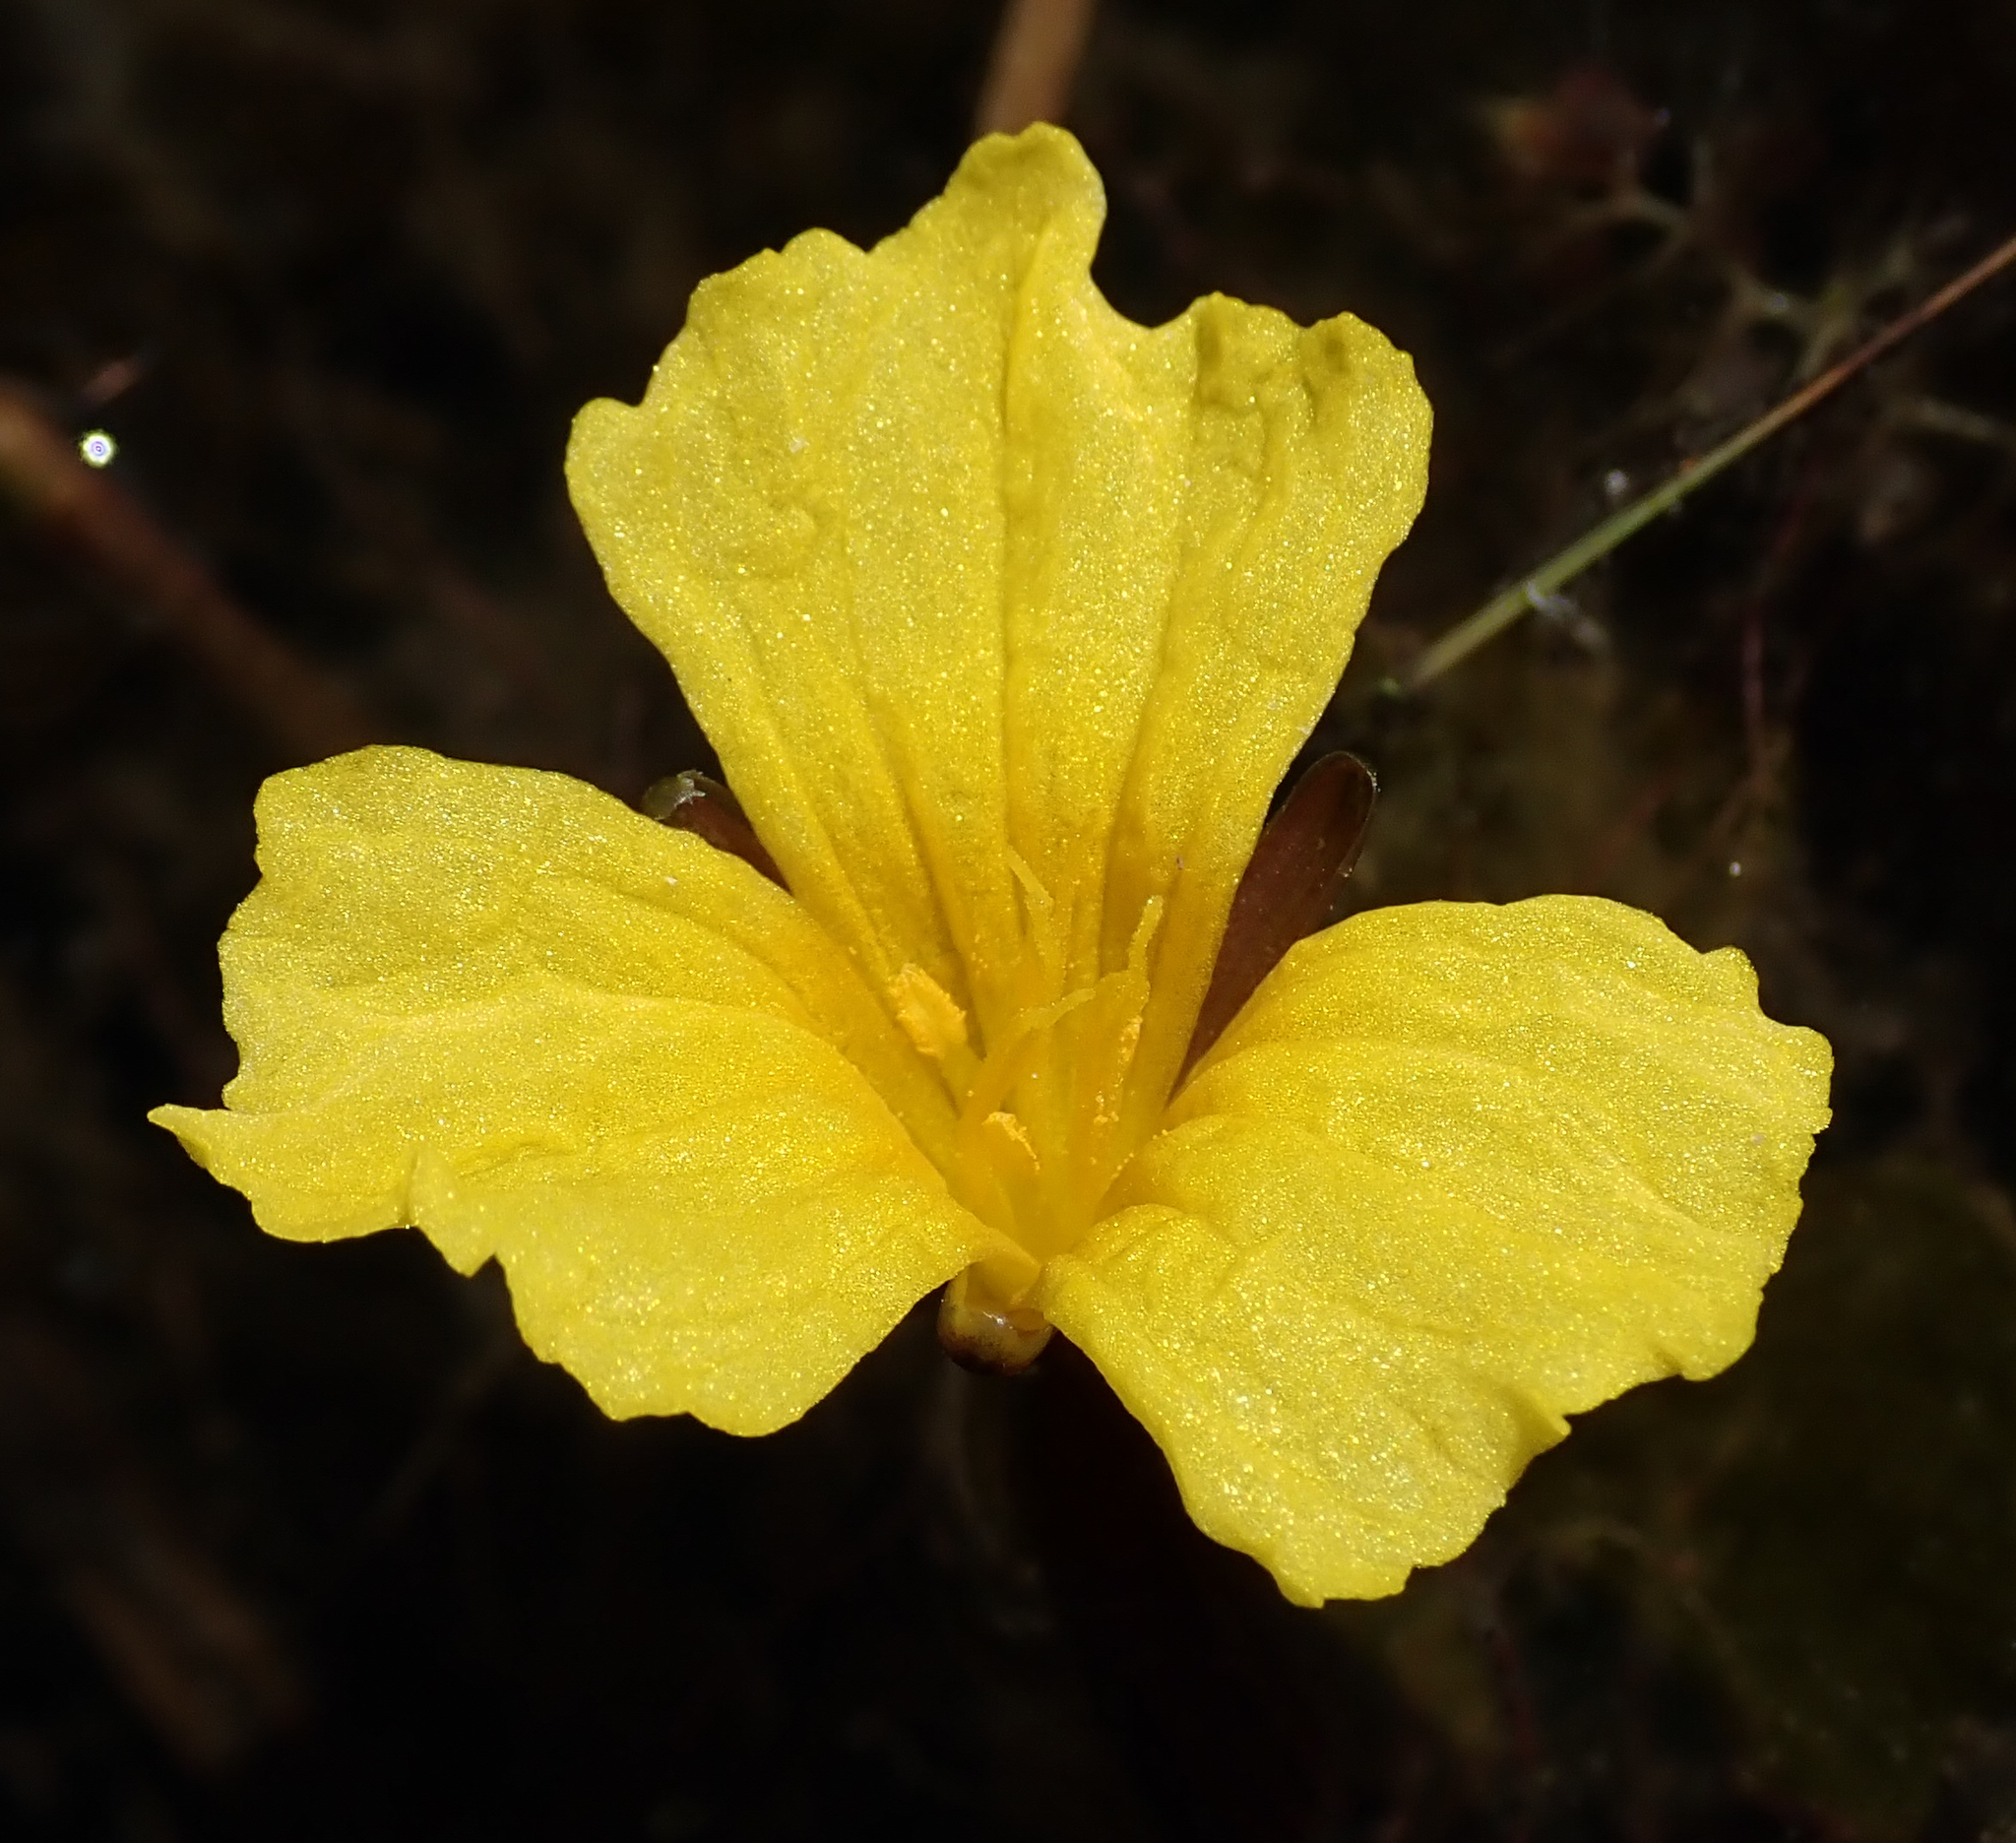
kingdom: Plantae
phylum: Tracheophyta
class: Liliopsida
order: Alismatales
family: Hydrocharitaceae
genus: Ottelia
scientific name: Ottelia ulvifolia
